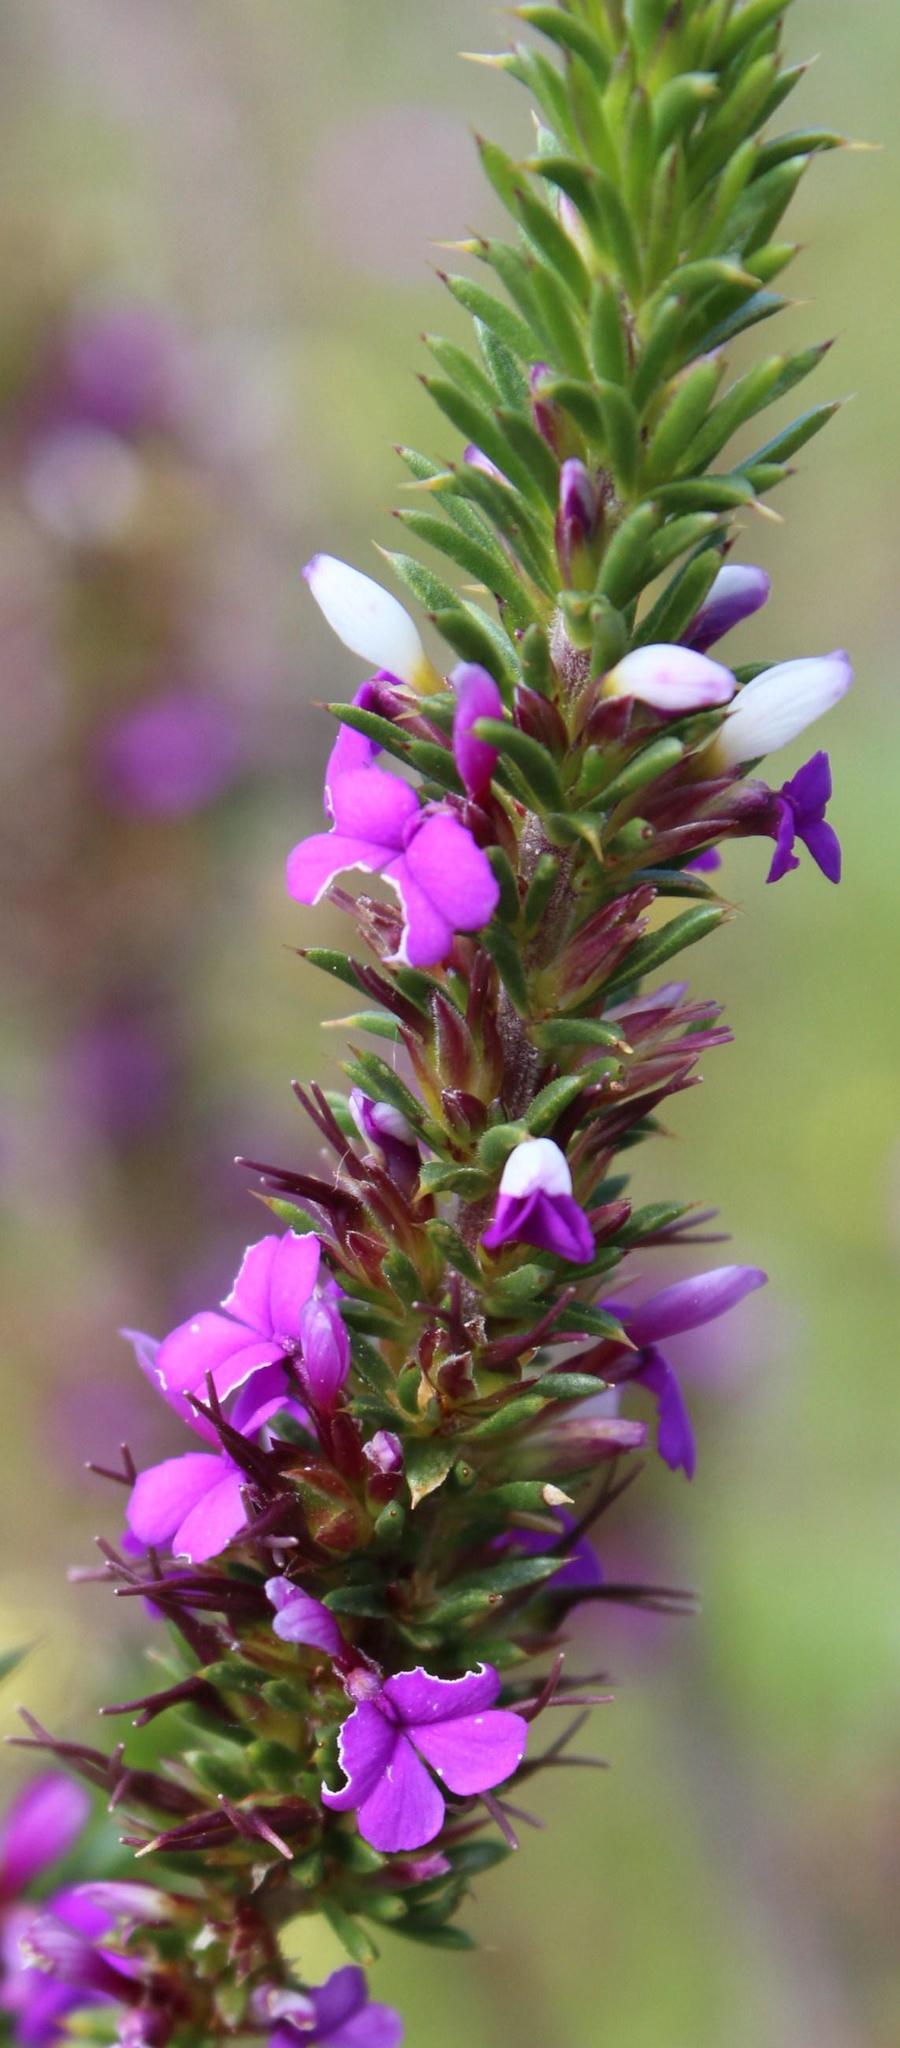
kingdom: Plantae
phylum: Tracheophyta
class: Magnoliopsida
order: Fabales
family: Polygalaceae
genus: Muraltia
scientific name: Muraltia heisteria
